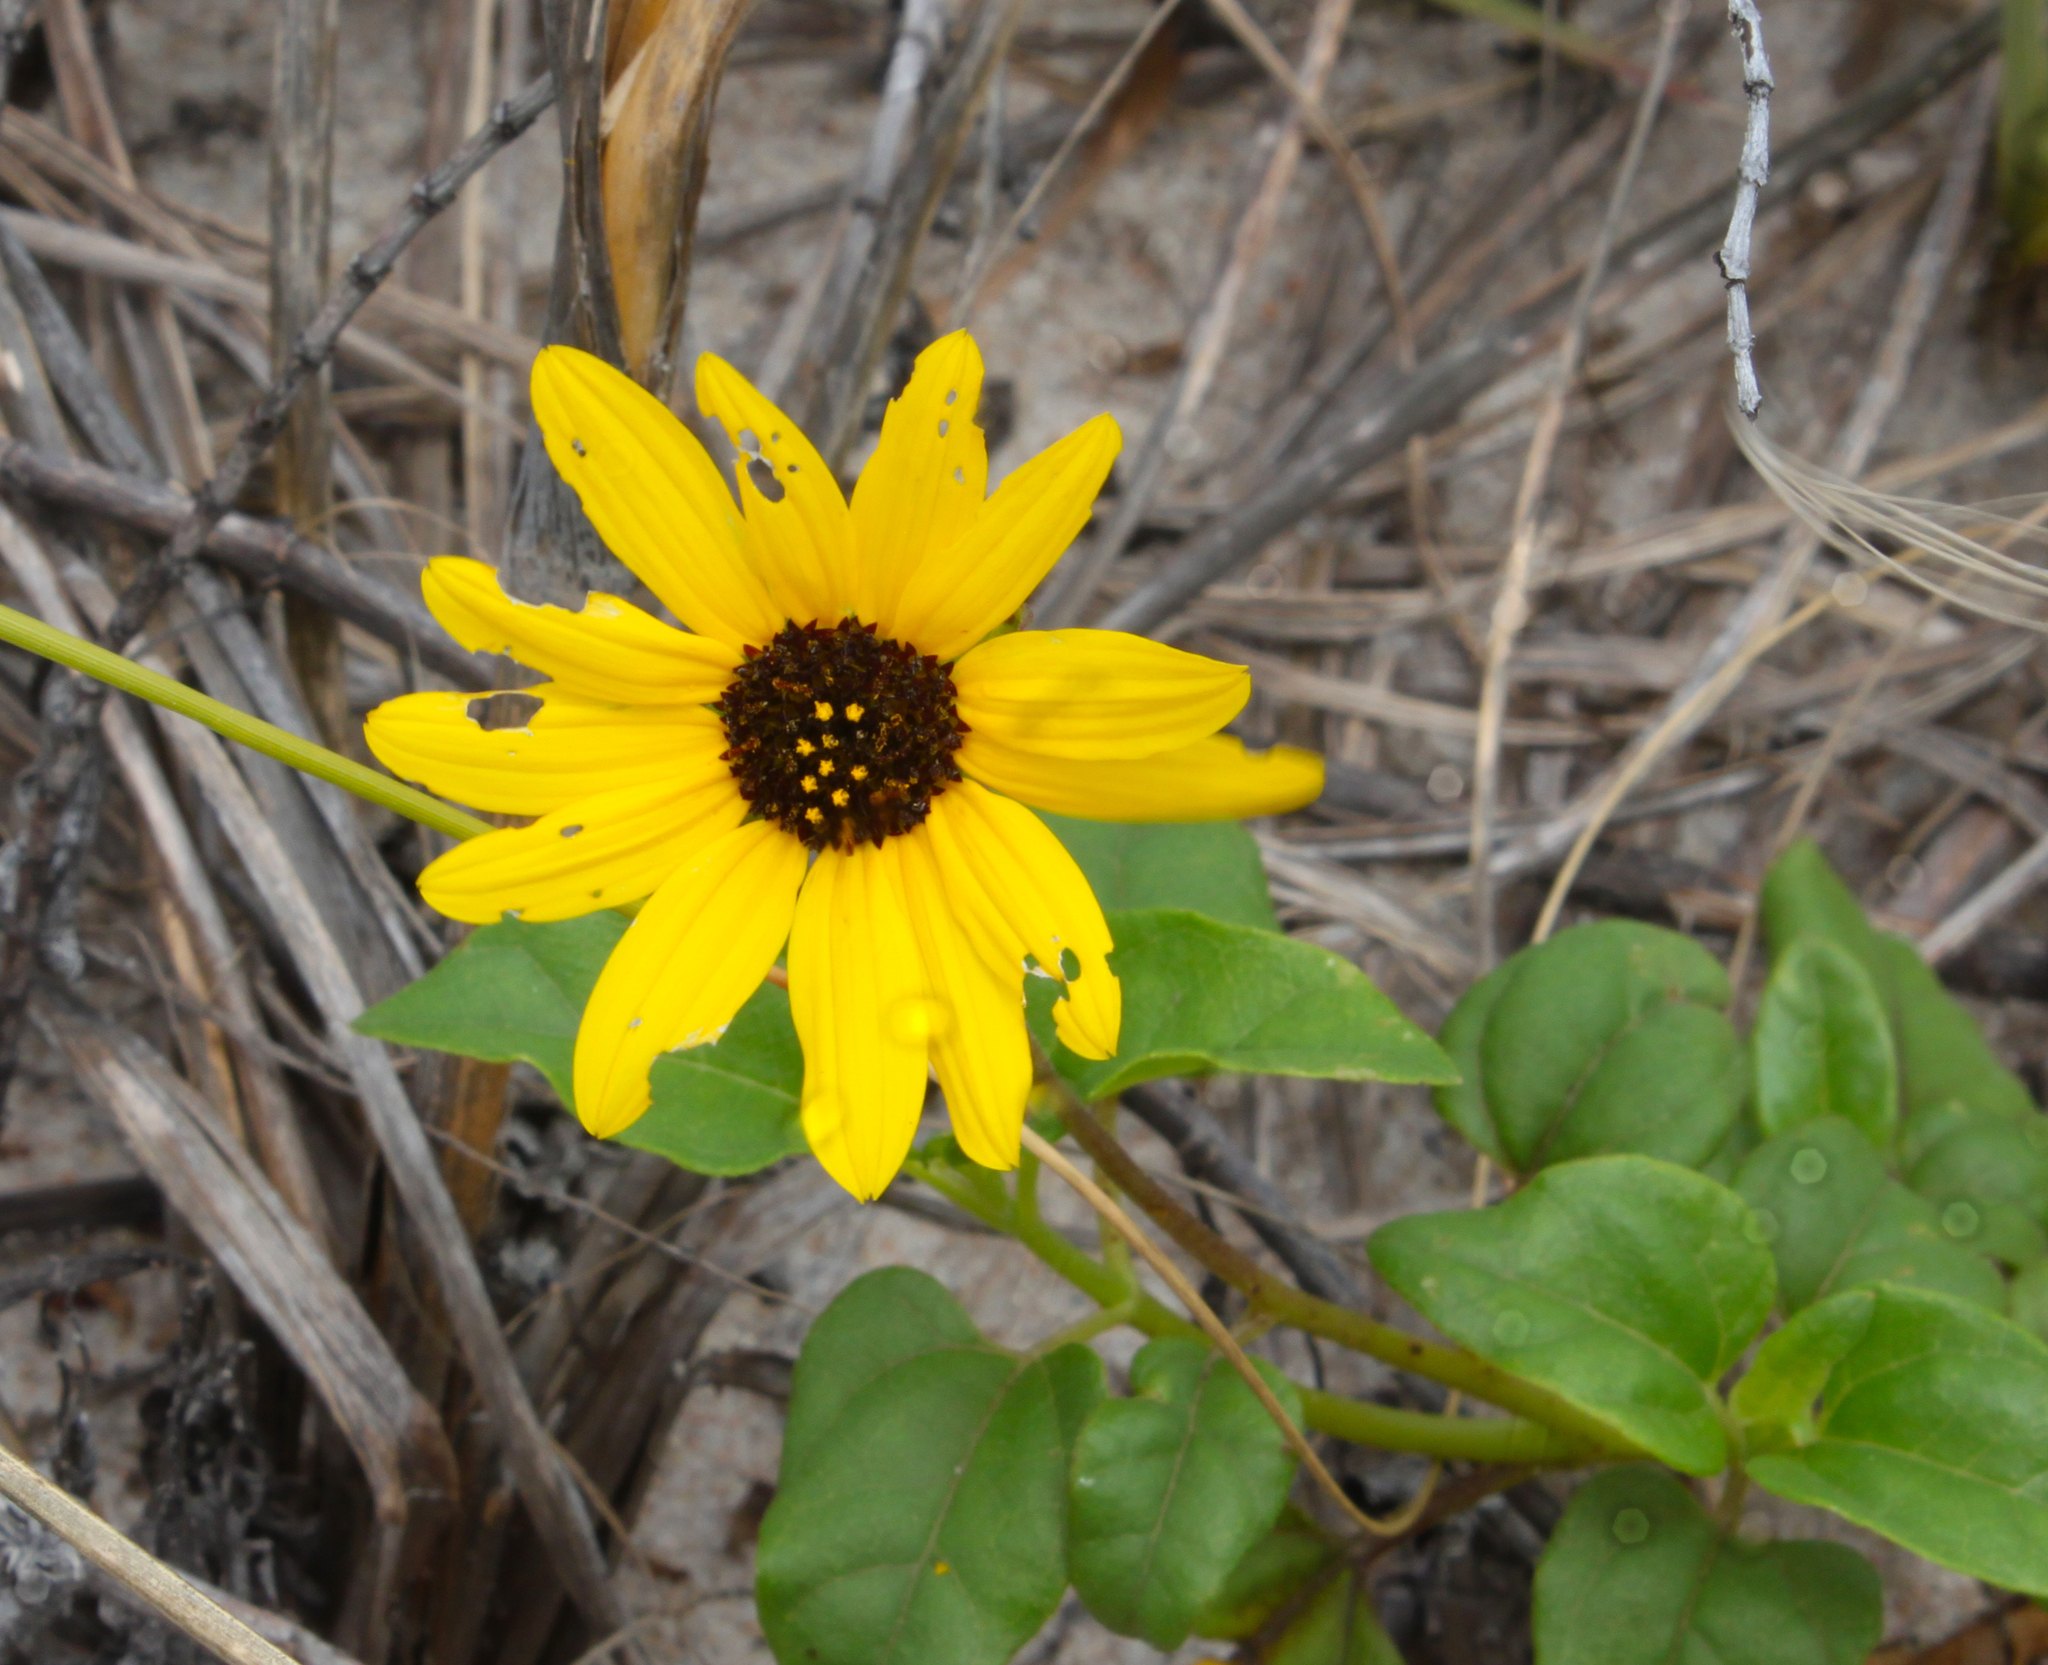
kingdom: Plantae
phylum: Tracheophyta
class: Magnoliopsida
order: Asterales
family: Asteraceae
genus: Helianthus
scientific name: Helianthus debilis
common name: Weak sunflower
